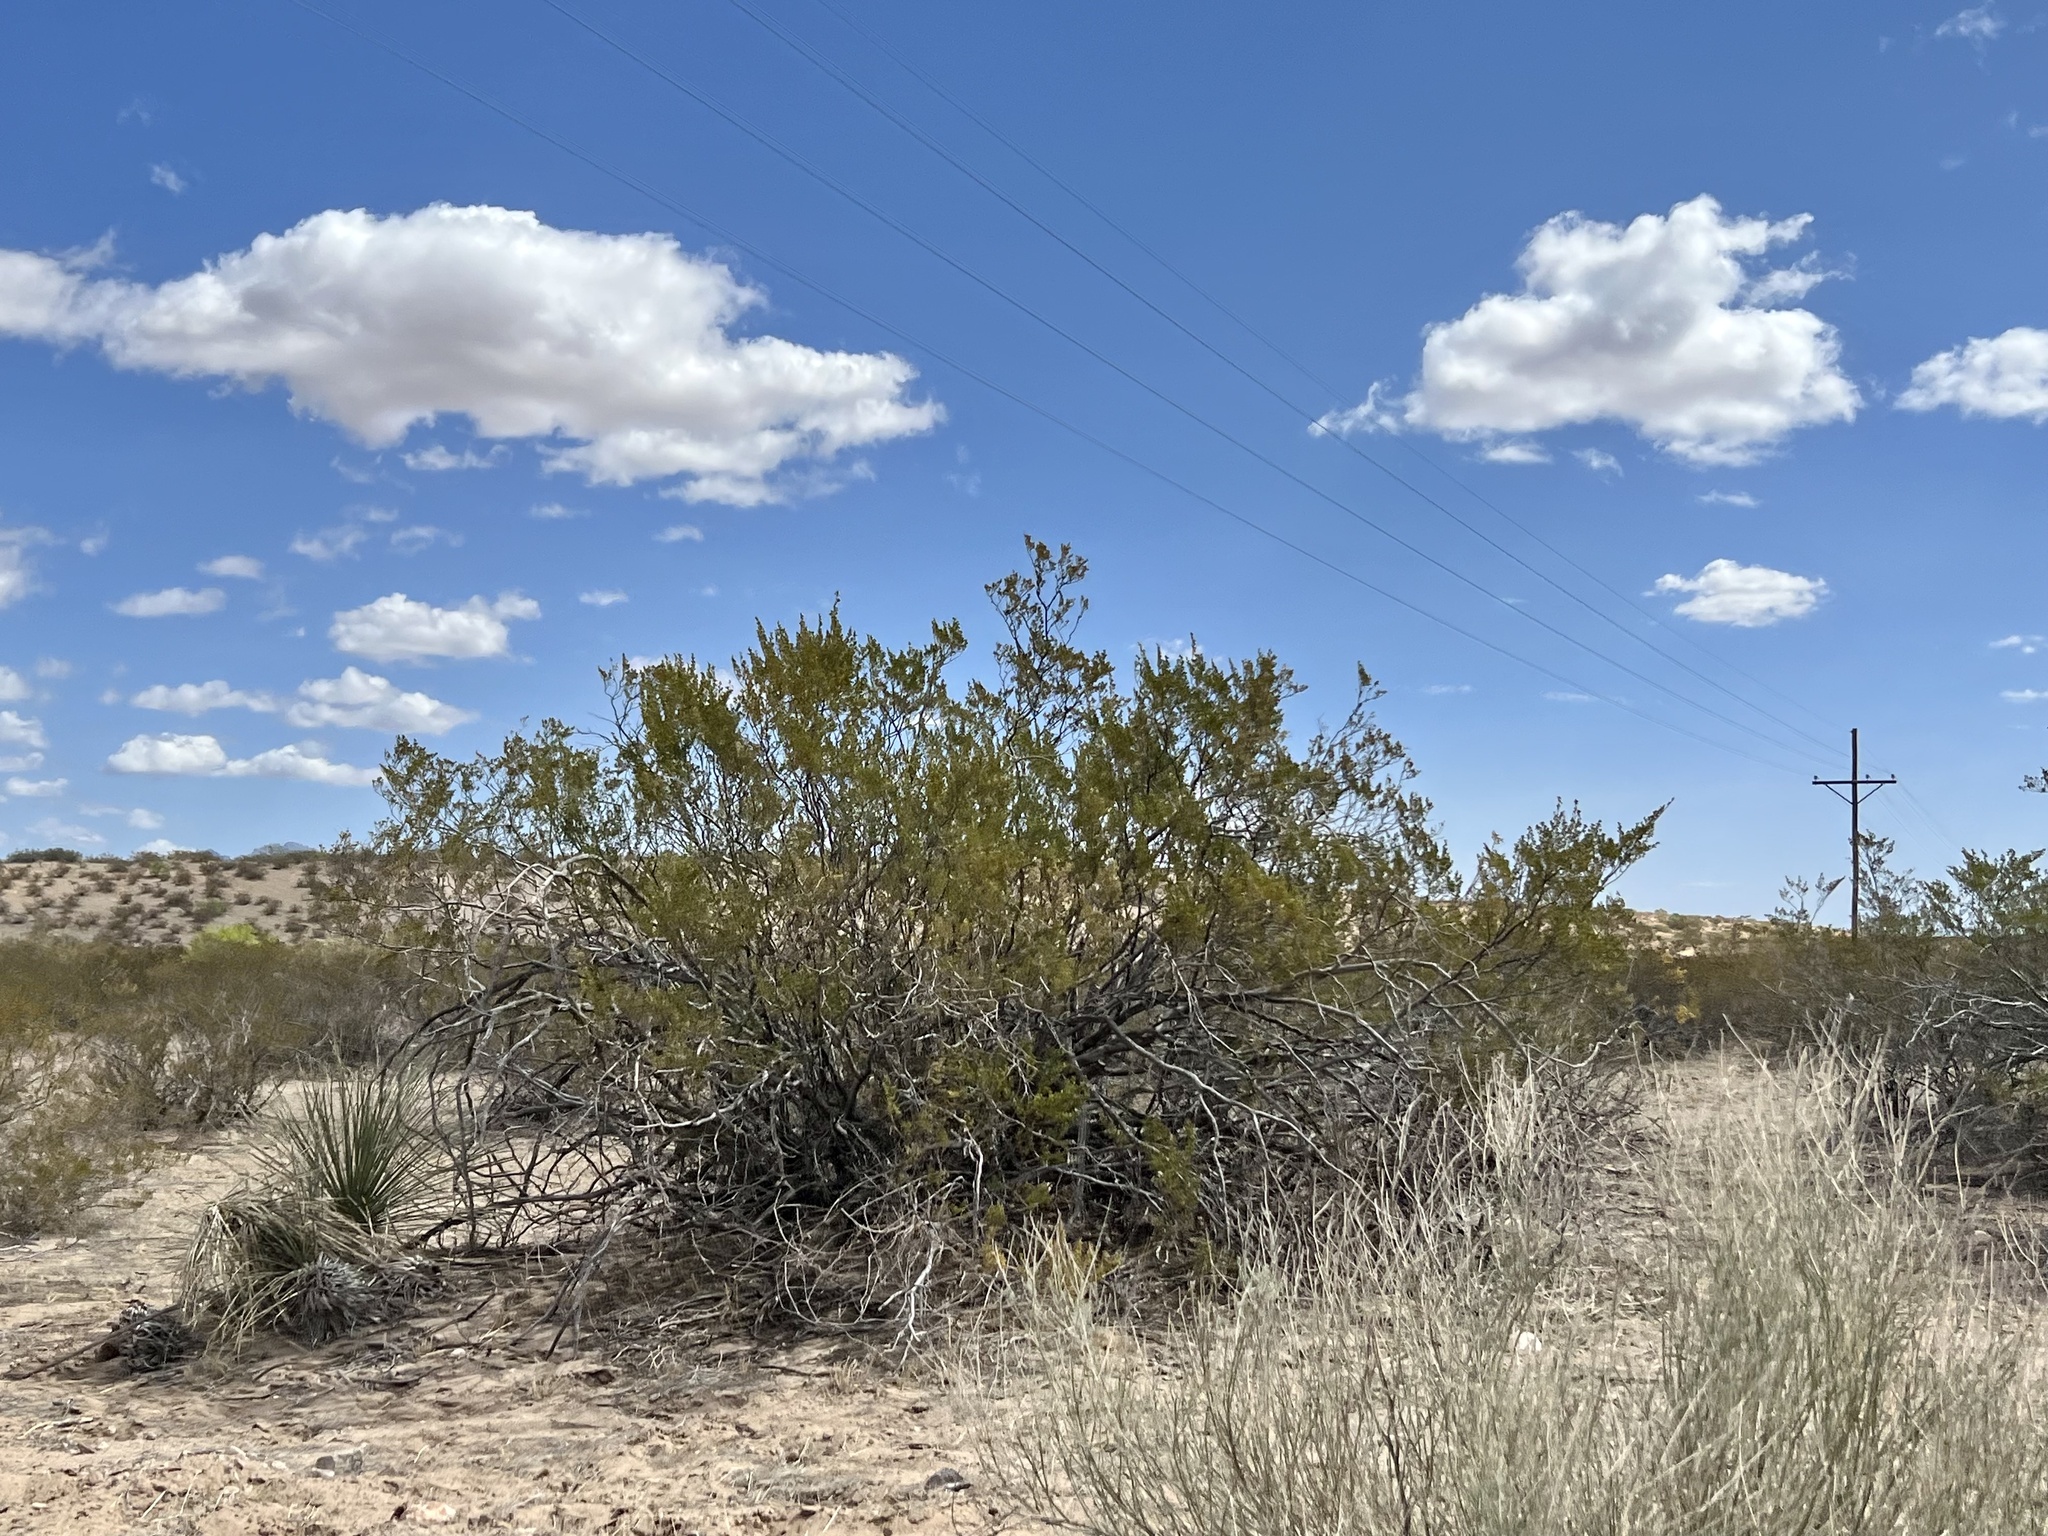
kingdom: Plantae
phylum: Tracheophyta
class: Magnoliopsida
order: Zygophyllales
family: Zygophyllaceae
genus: Larrea
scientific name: Larrea tridentata
